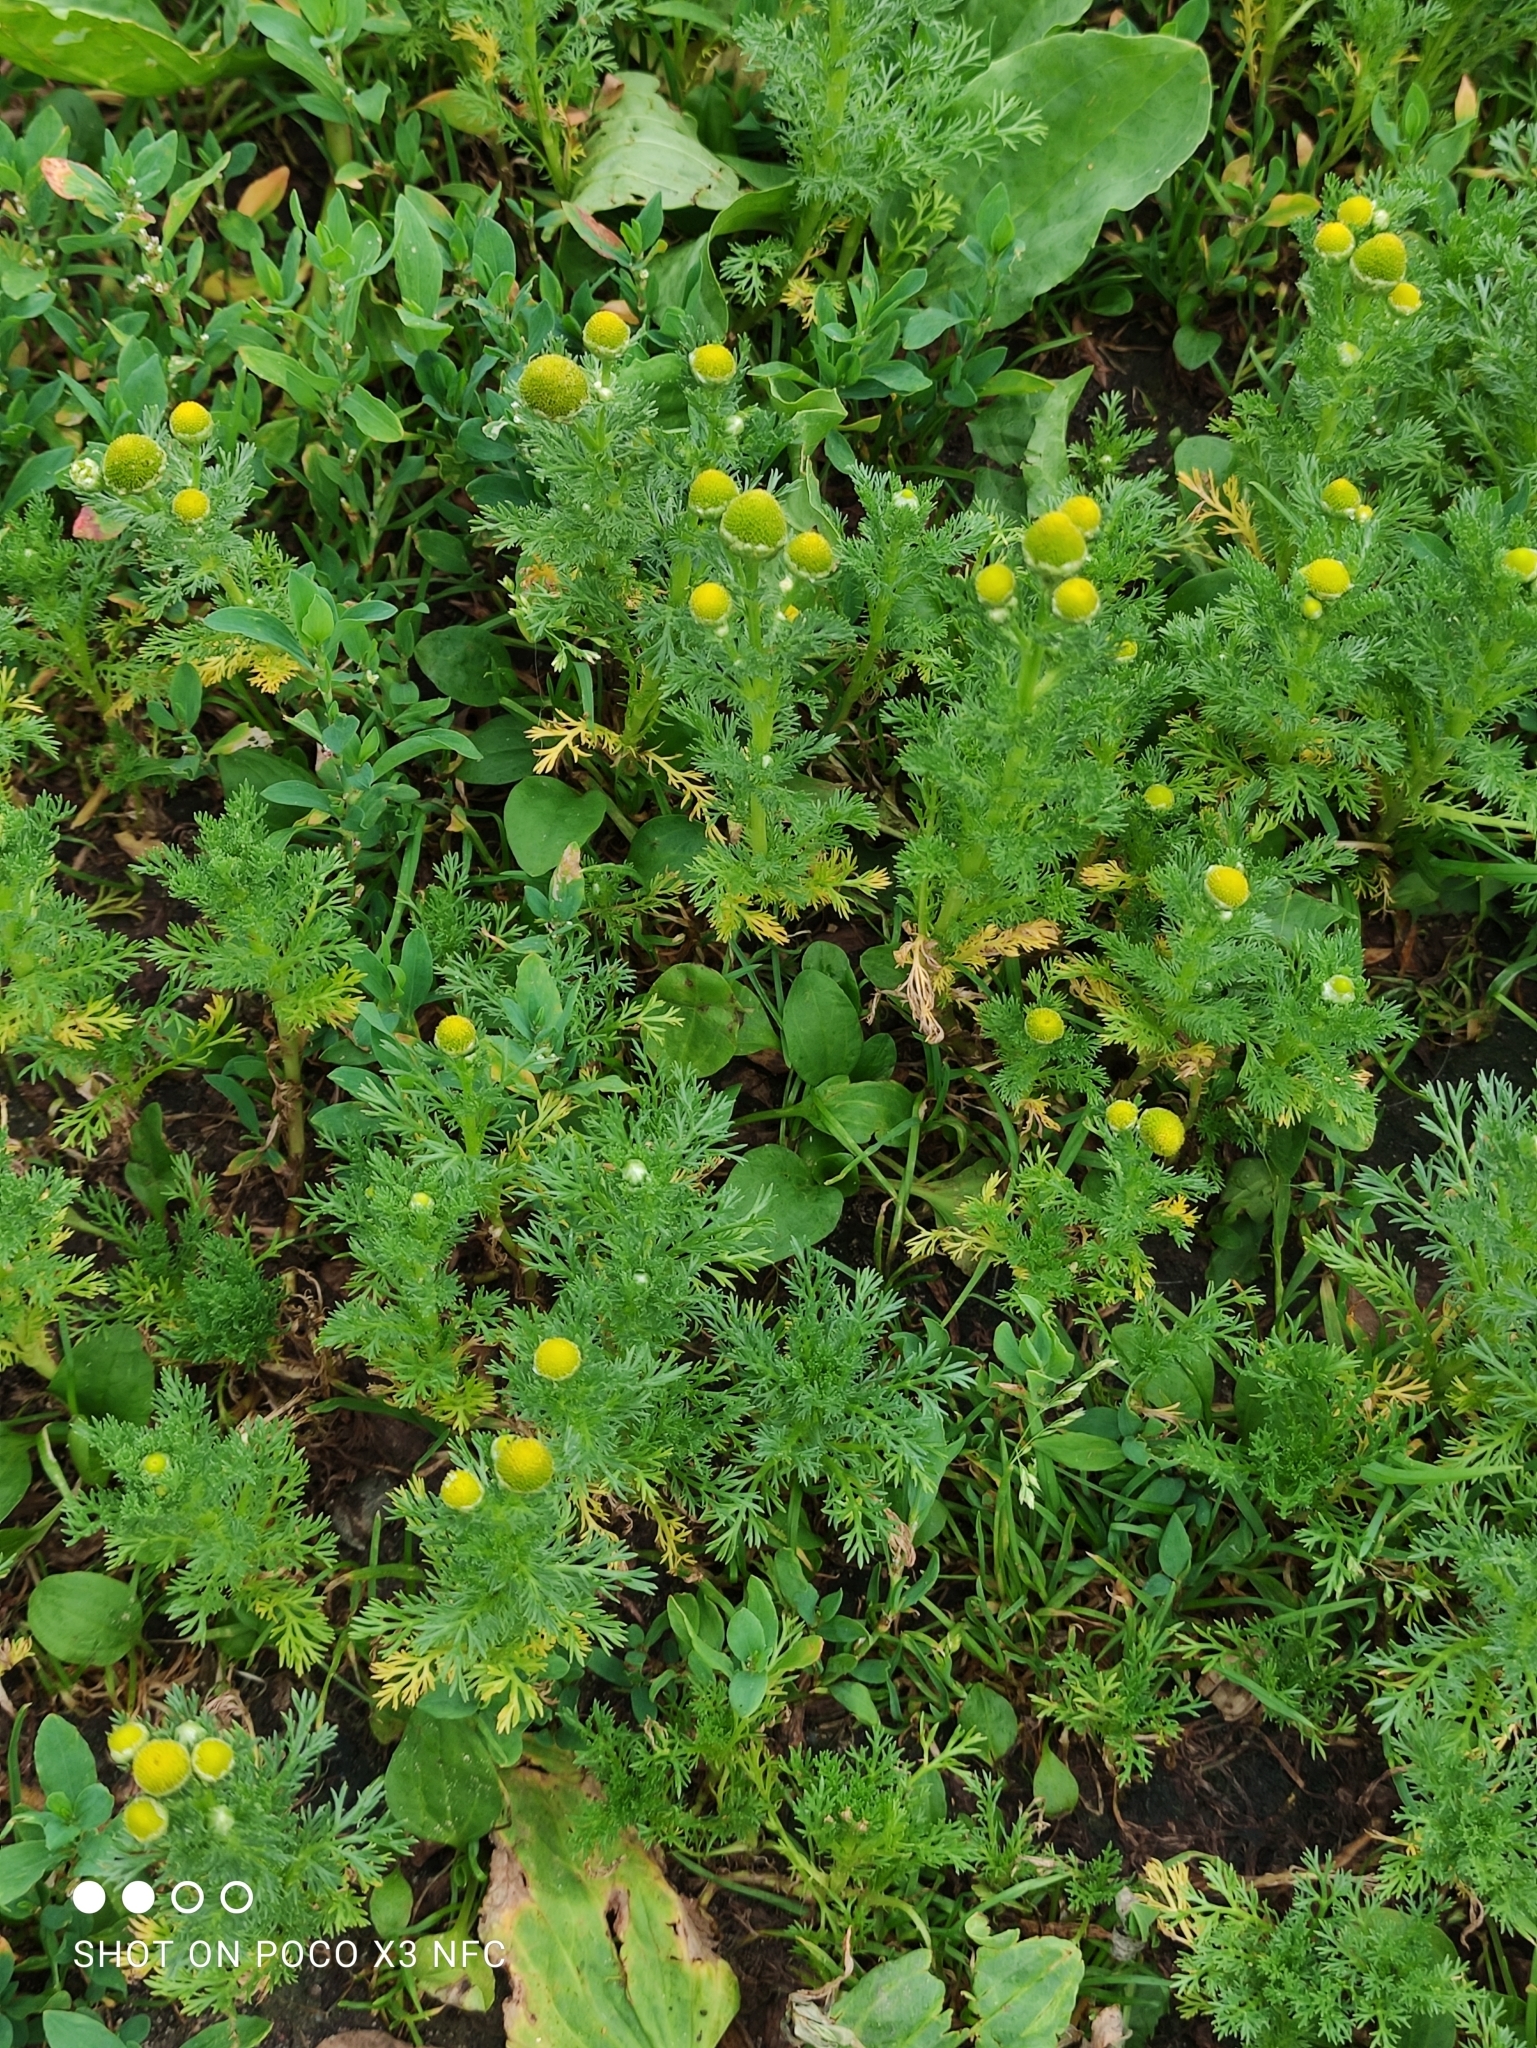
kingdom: Plantae
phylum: Tracheophyta
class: Magnoliopsida
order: Asterales
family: Asteraceae
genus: Matricaria
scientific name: Matricaria discoidea
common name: Disc mayweed
